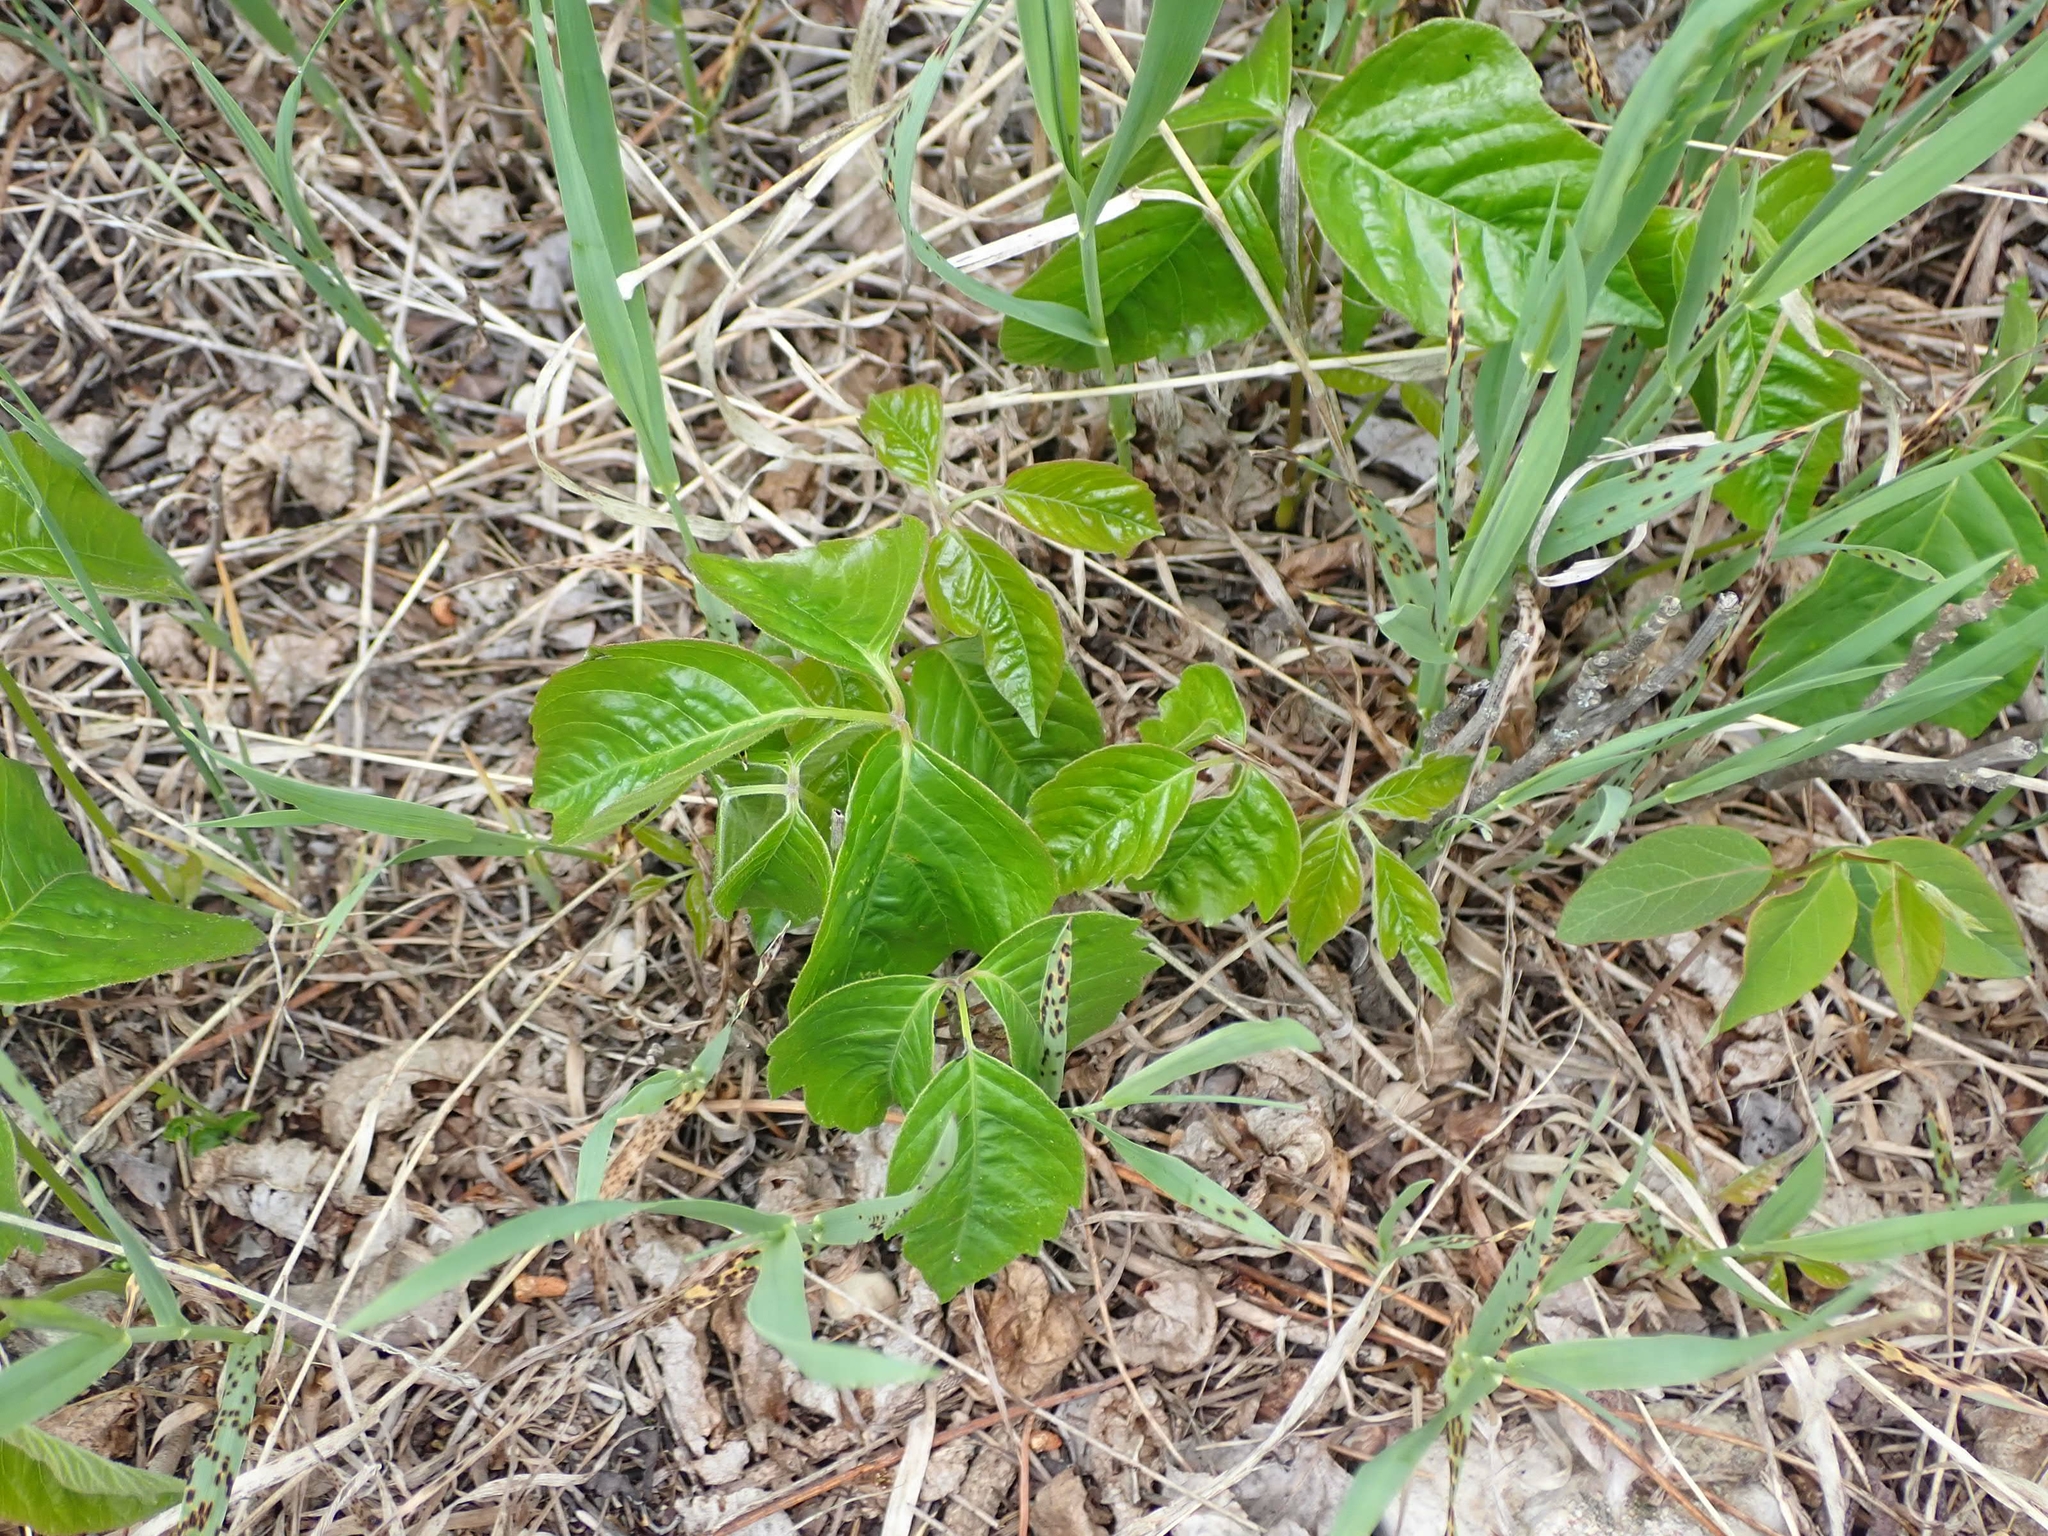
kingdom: Plantae
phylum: Tracheophyta
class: Magnoliopsida
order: Sapindales
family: Anacardiaceae
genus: Toxicodendron
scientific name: Toxicodendron rydbergii
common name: Rydberg's poison-ivy
